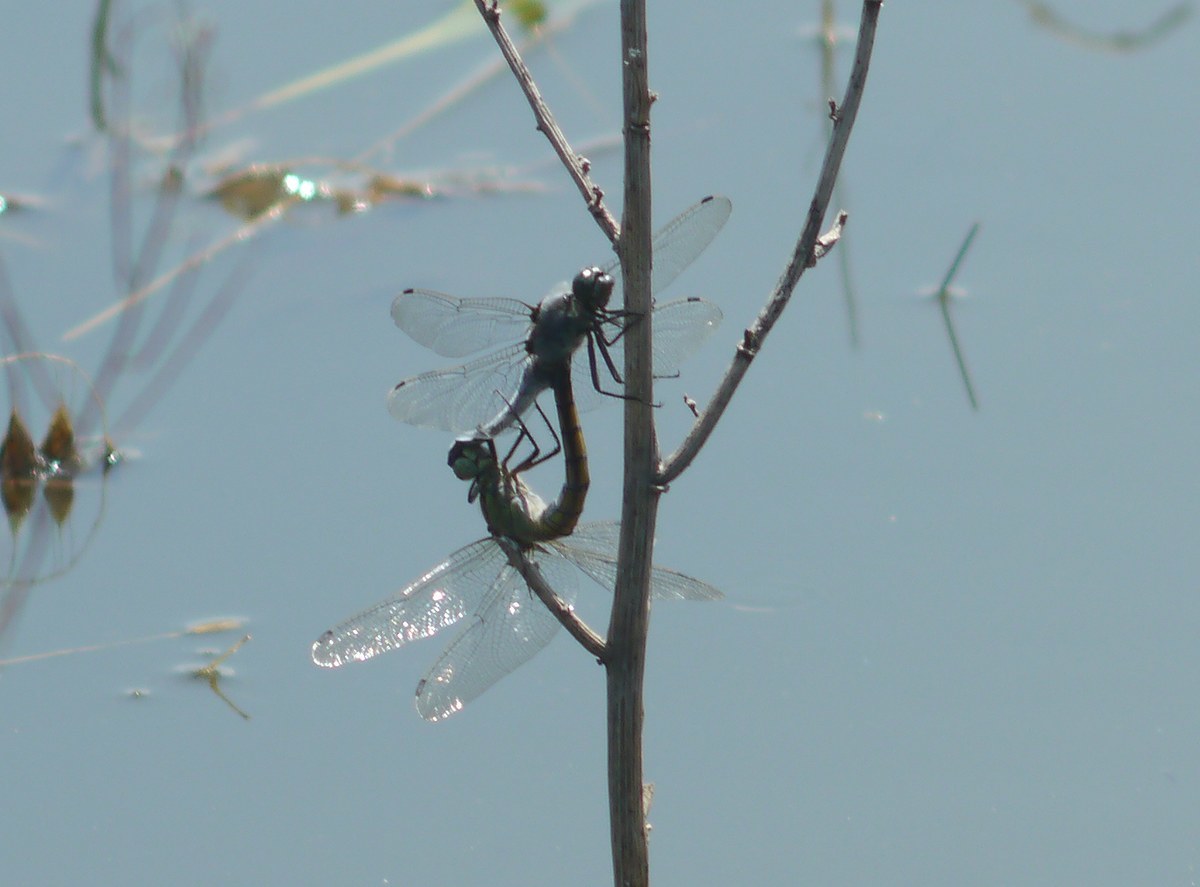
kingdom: Animalia
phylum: Arthropoda
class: Insecta
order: Odonata
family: Libellulidae
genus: Orthetrum
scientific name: Orthetrum cancellatum
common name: Black-tailed skimmer
